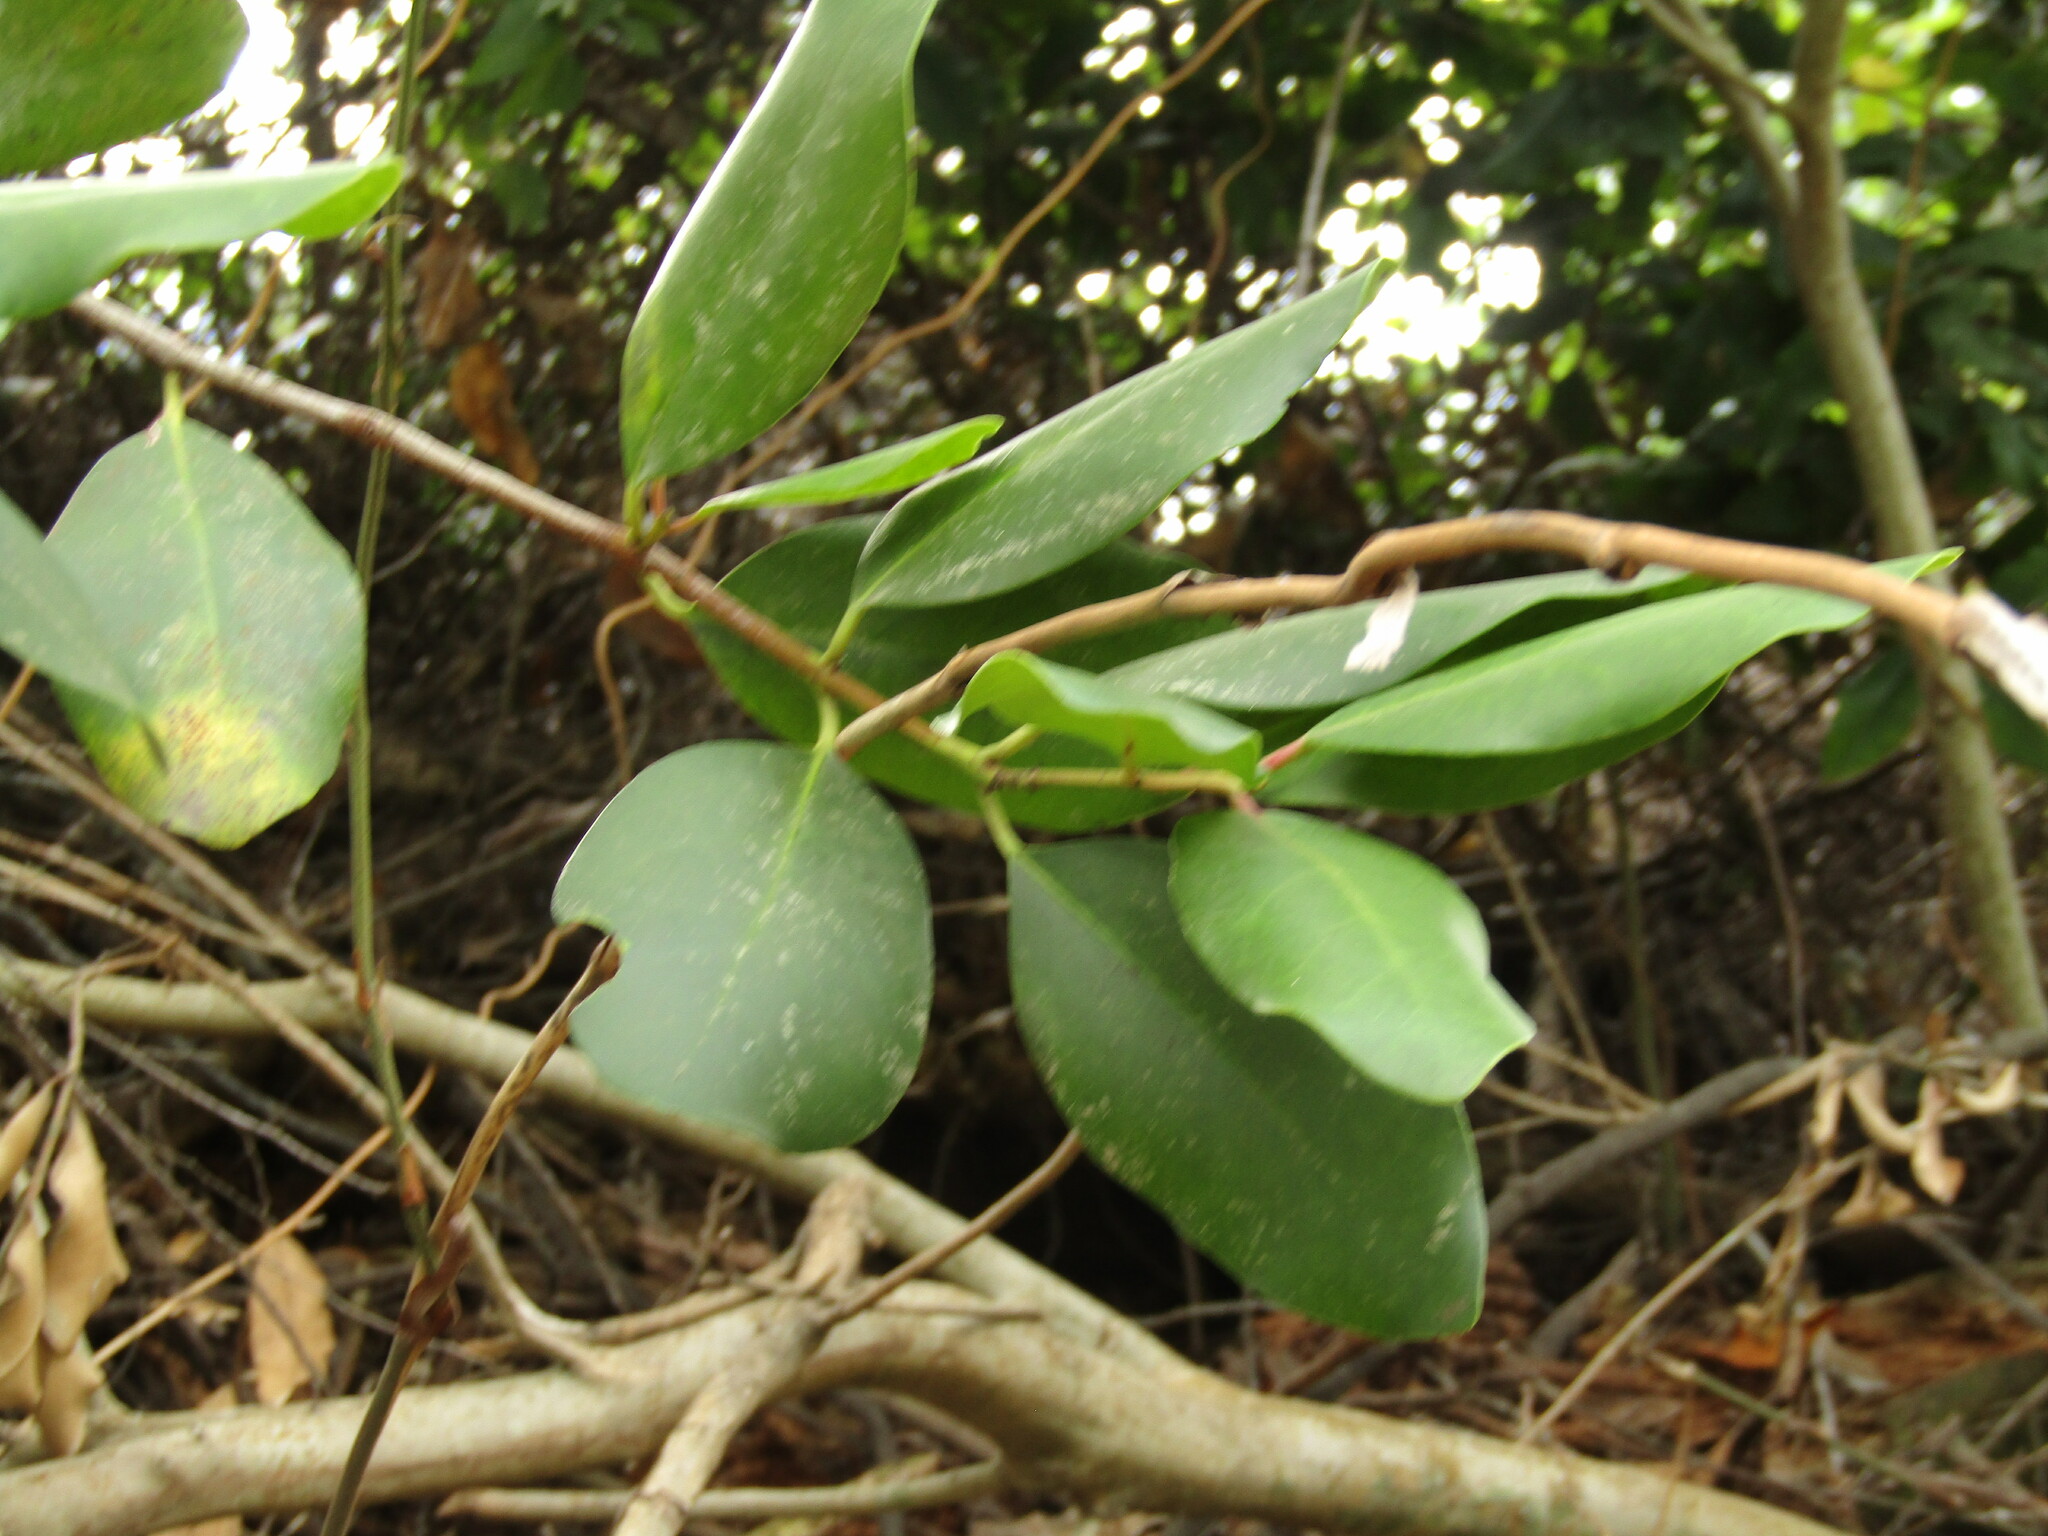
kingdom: Plantae
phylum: Tracheophyta
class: Magnoliopsida
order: Laurales
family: Gomortegaceae
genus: Gomortega
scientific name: Gomortega keule
